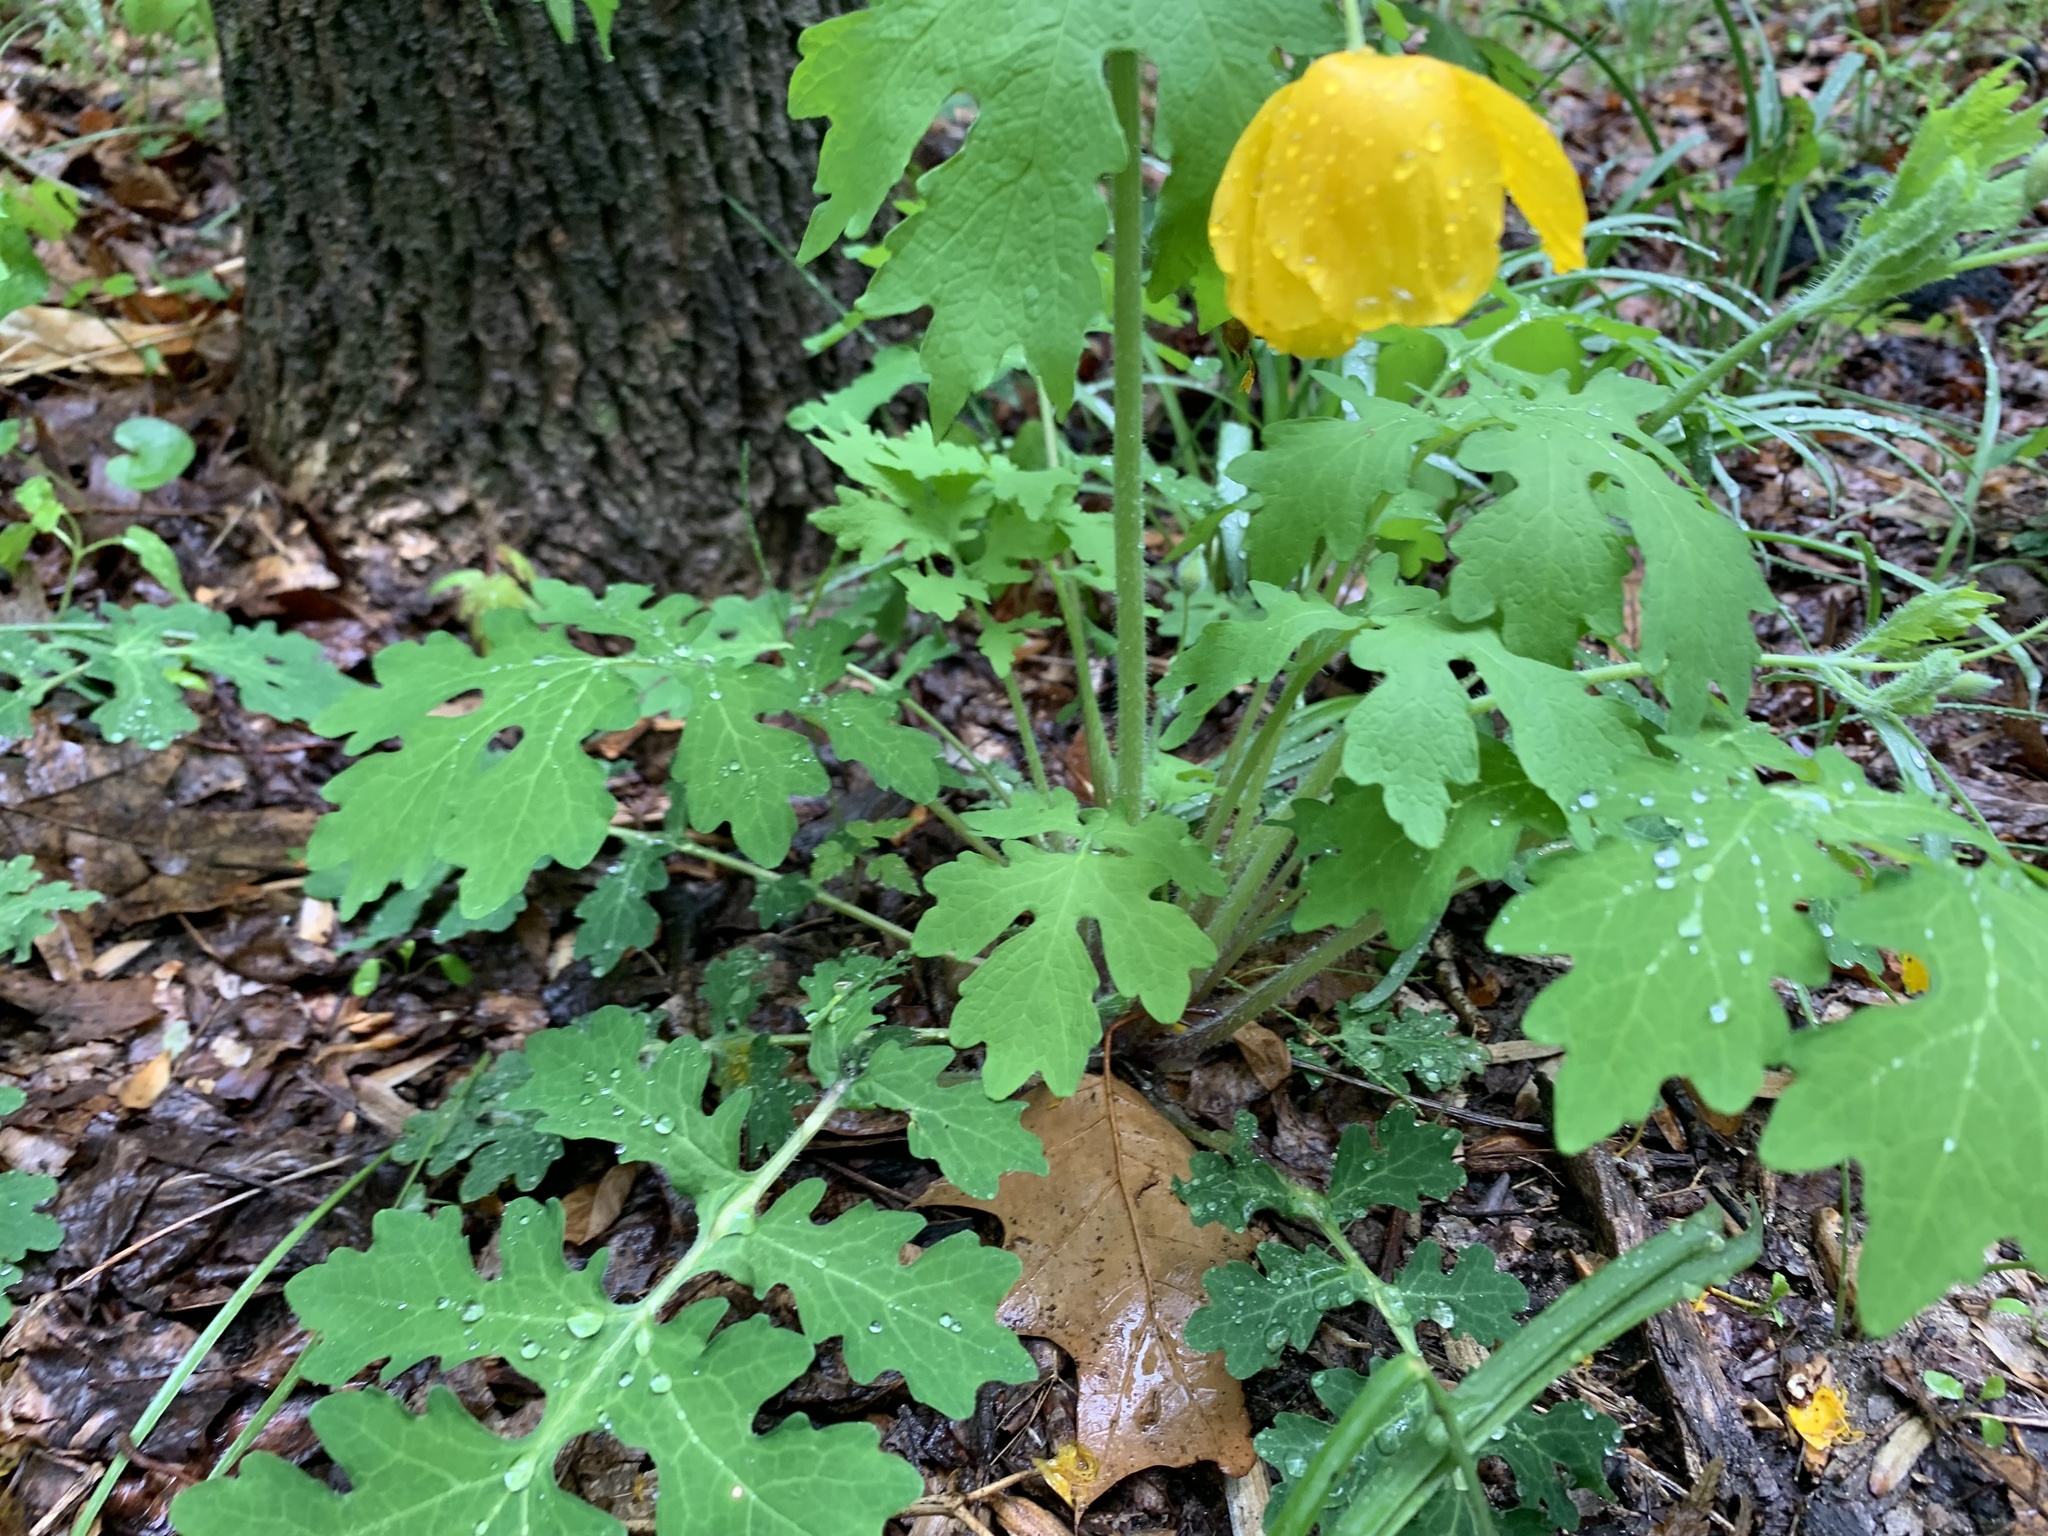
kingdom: Plantae
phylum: Tracheophyta
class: Magnoliopsida
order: Ranunculales
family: Papaveraceae
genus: Stylophorum
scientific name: Stylophorum diphyllum
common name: Celandine poppy
